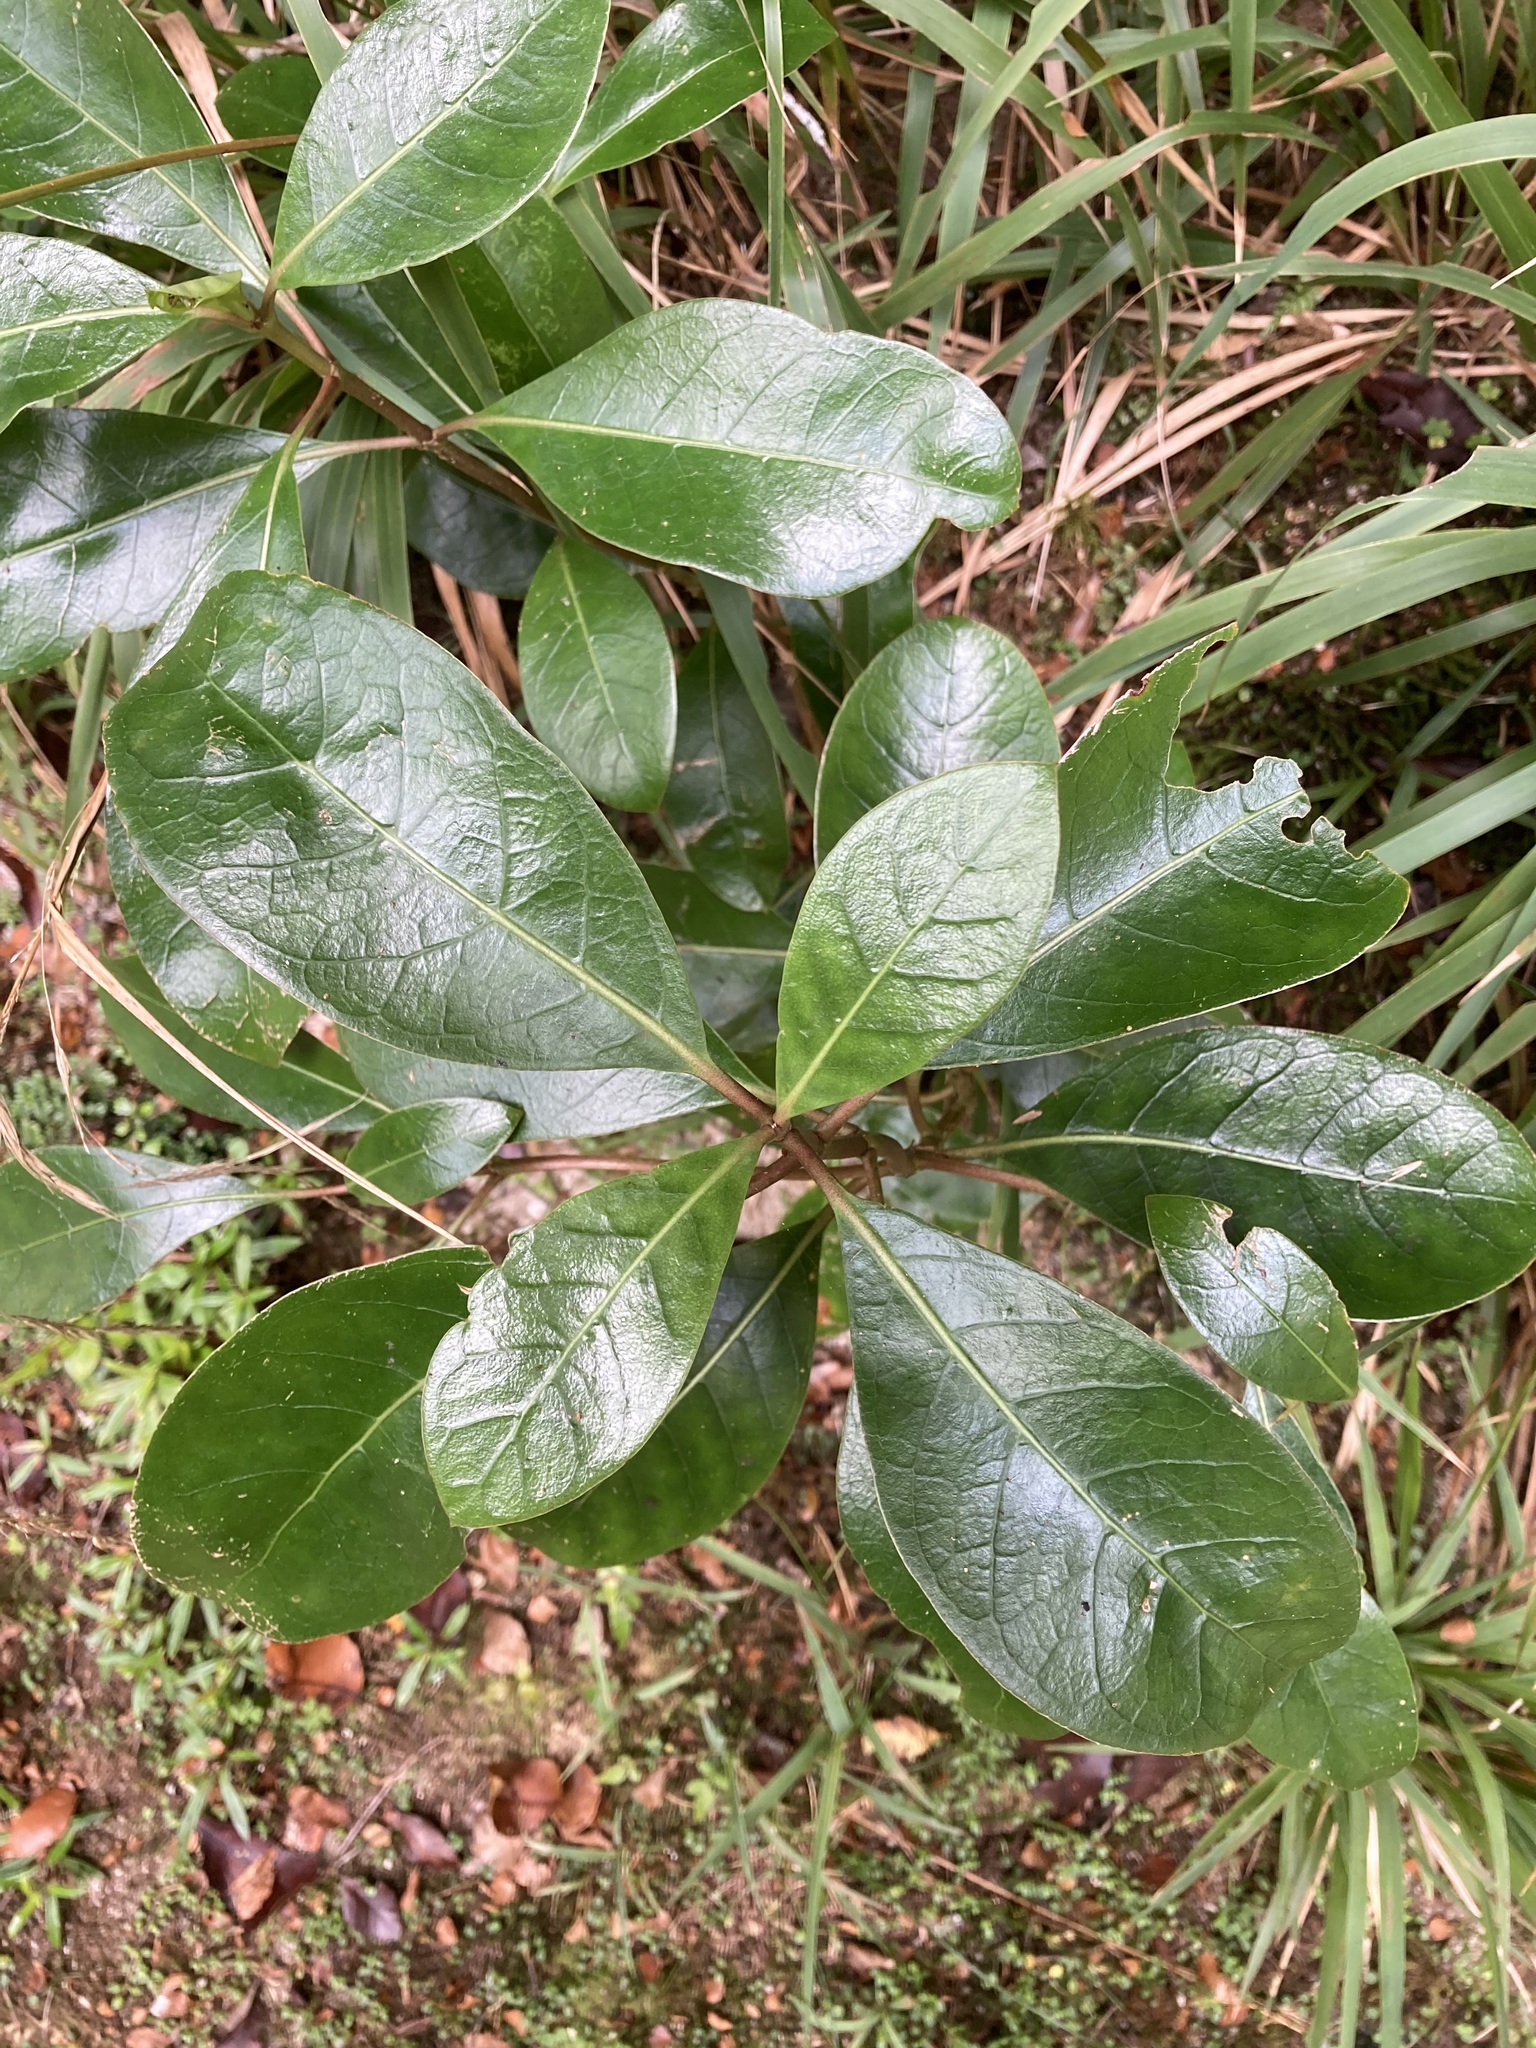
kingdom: Plantae
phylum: Tracheophyta
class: Magnoliopsida
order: Gentianales
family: Rubiaceae
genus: Coprosma
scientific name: Coprosma lucida
